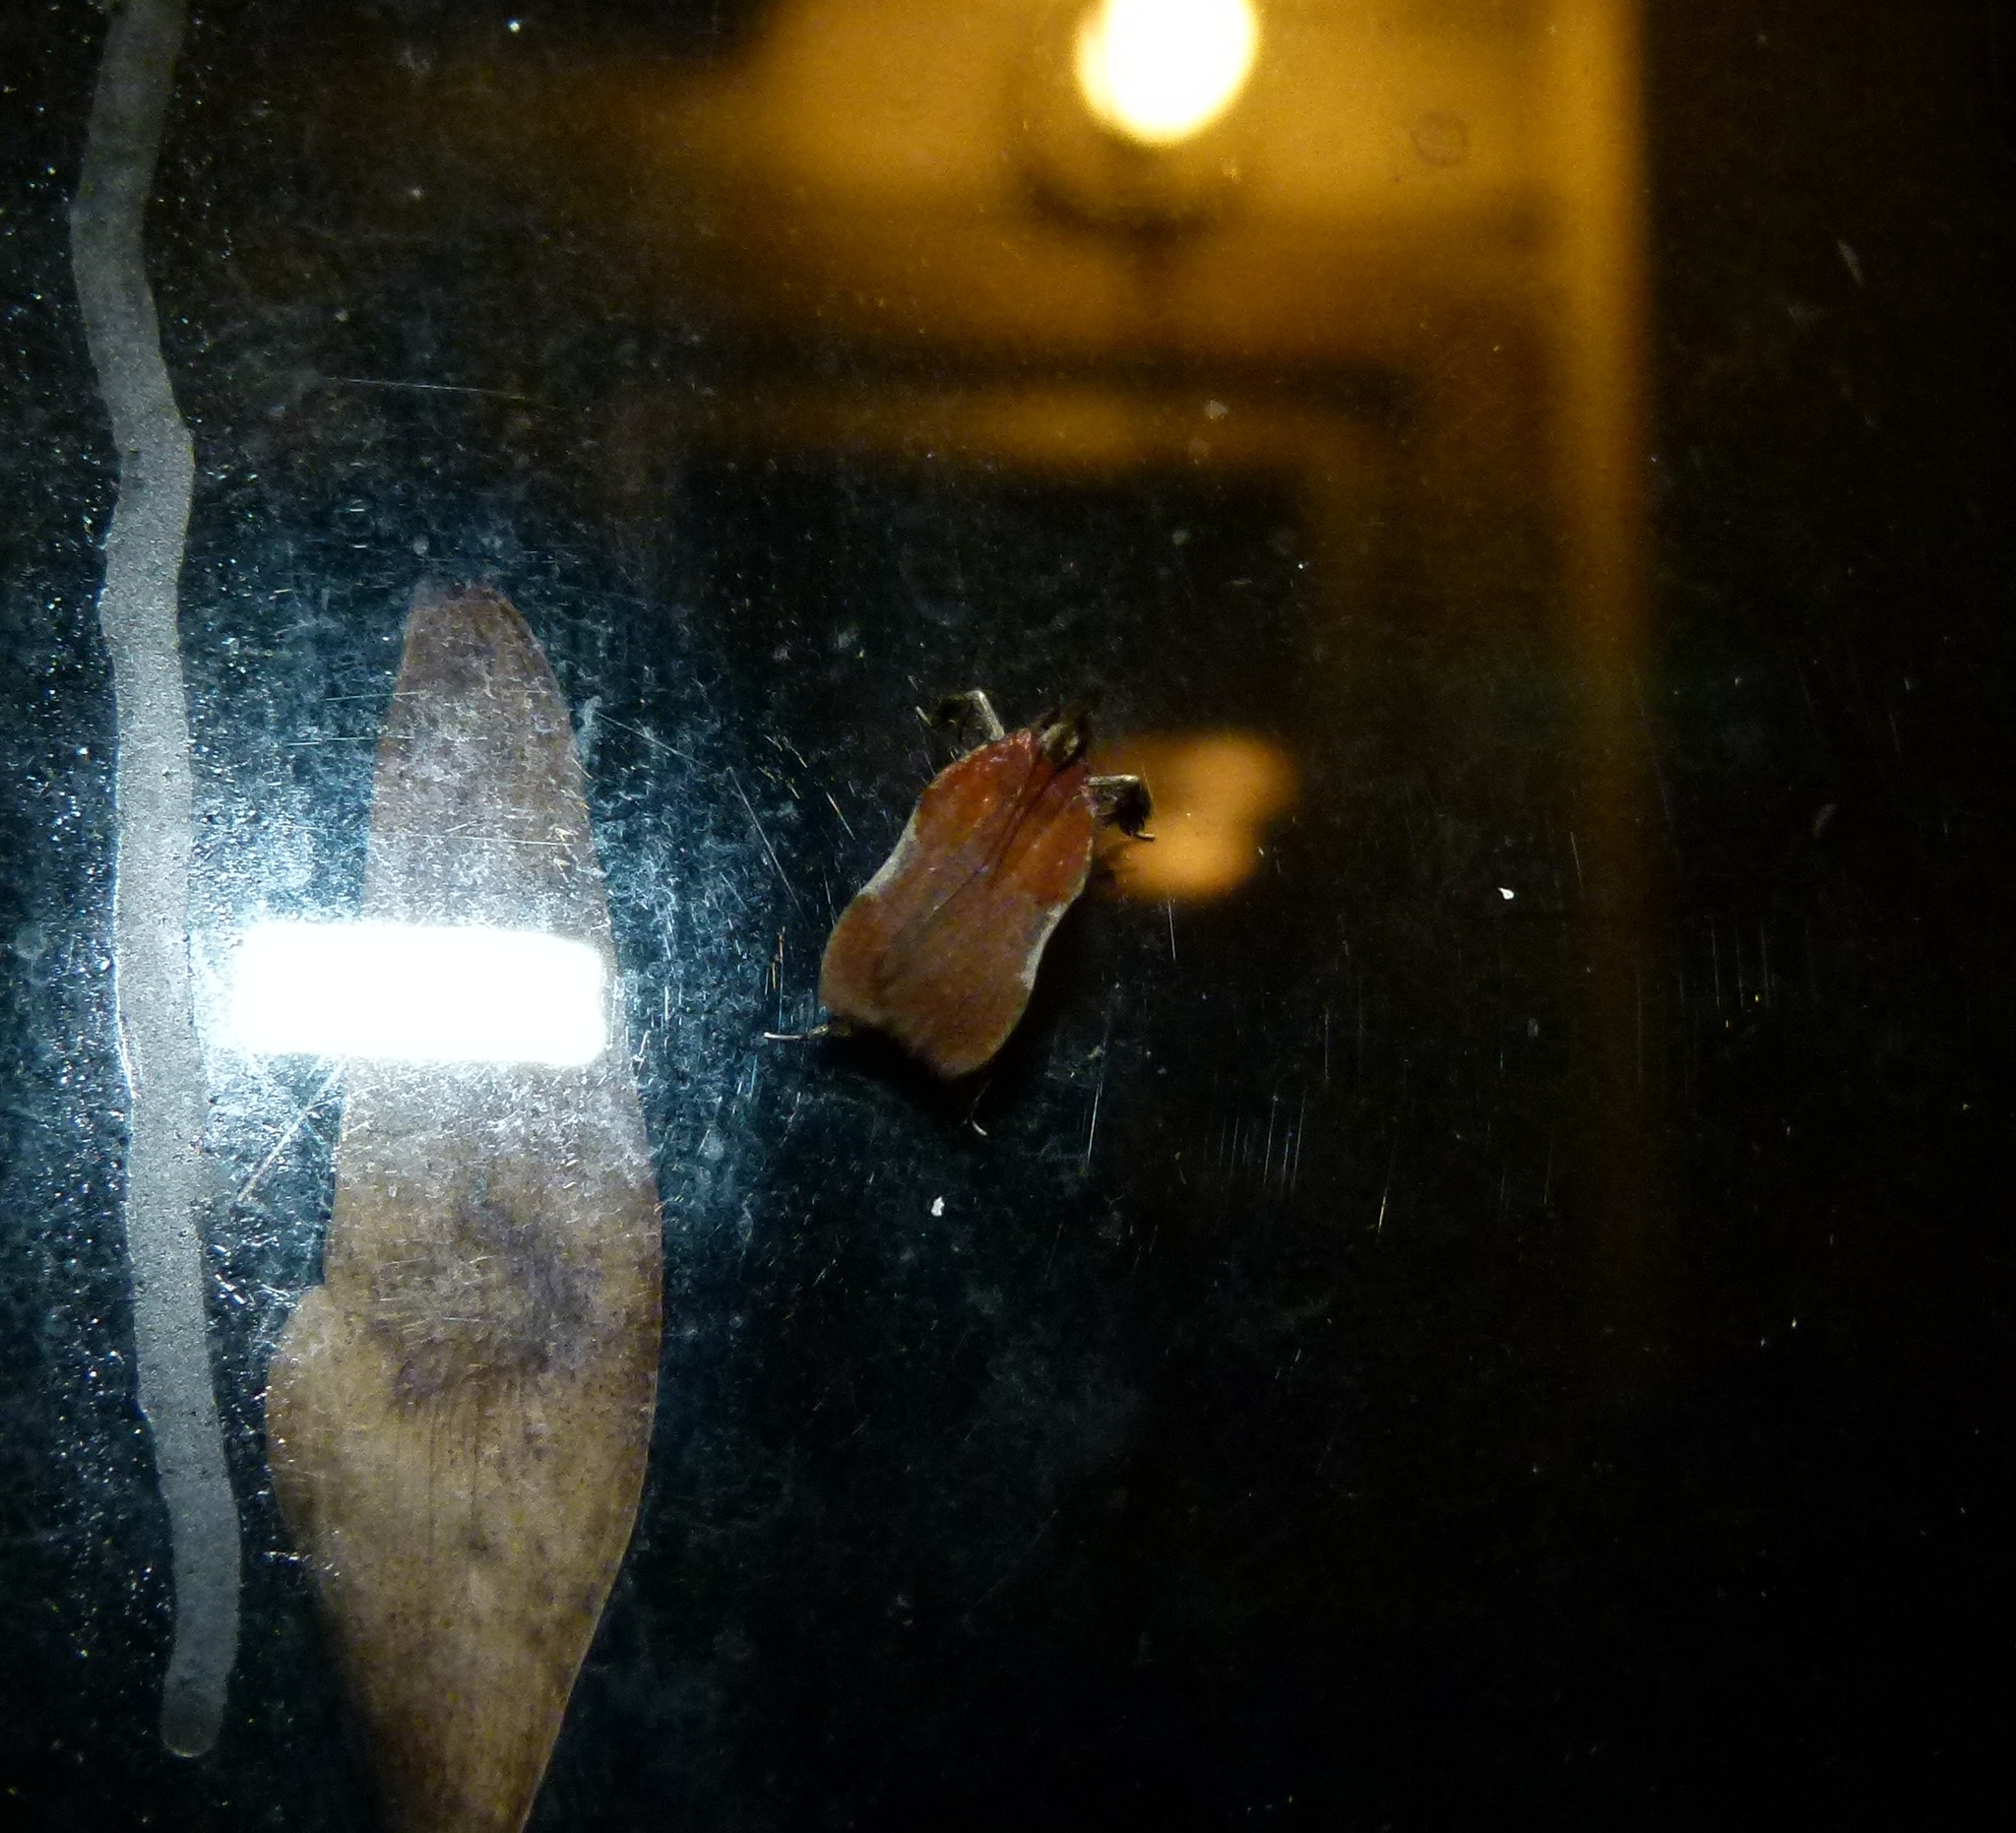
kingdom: Animalia
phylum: Arthropoda
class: Insecta
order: Lepidoptera
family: Pyralidae
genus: Galasa
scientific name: Galasa nigrinodis
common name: Boxwood leaftier moth
